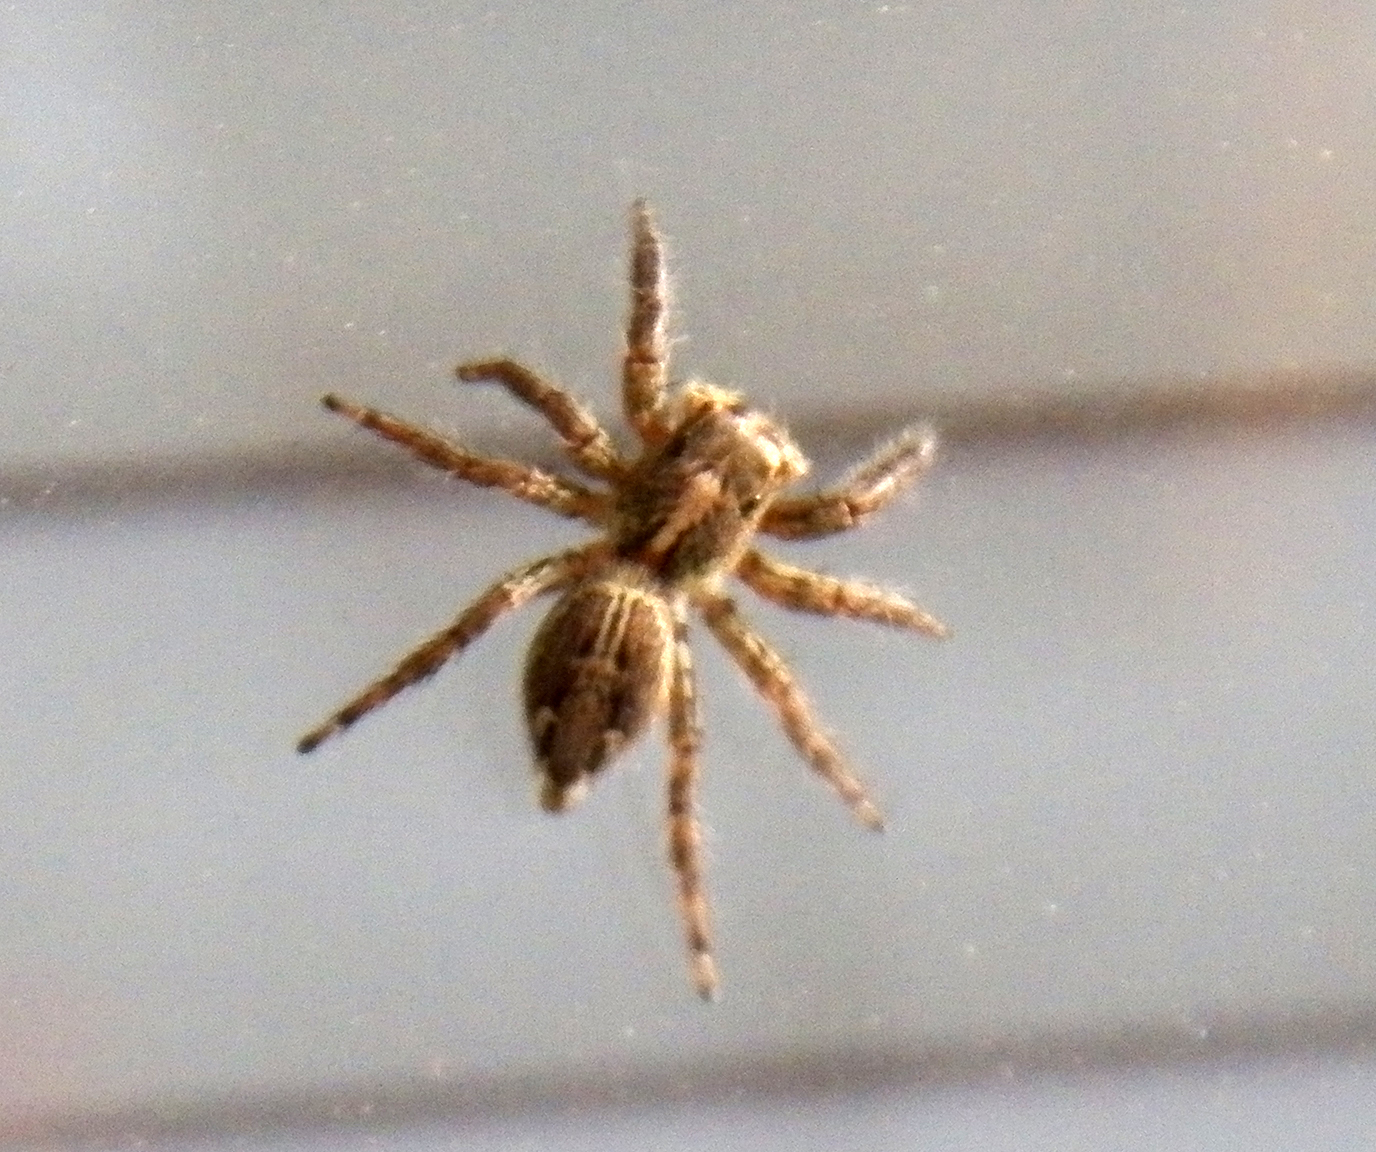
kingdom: Animalia
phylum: Arthropoda
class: Arachnida
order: Araneae
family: Salticidae
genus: Plexippus
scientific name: Plexippus paykulli
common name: Pantropical jumper
